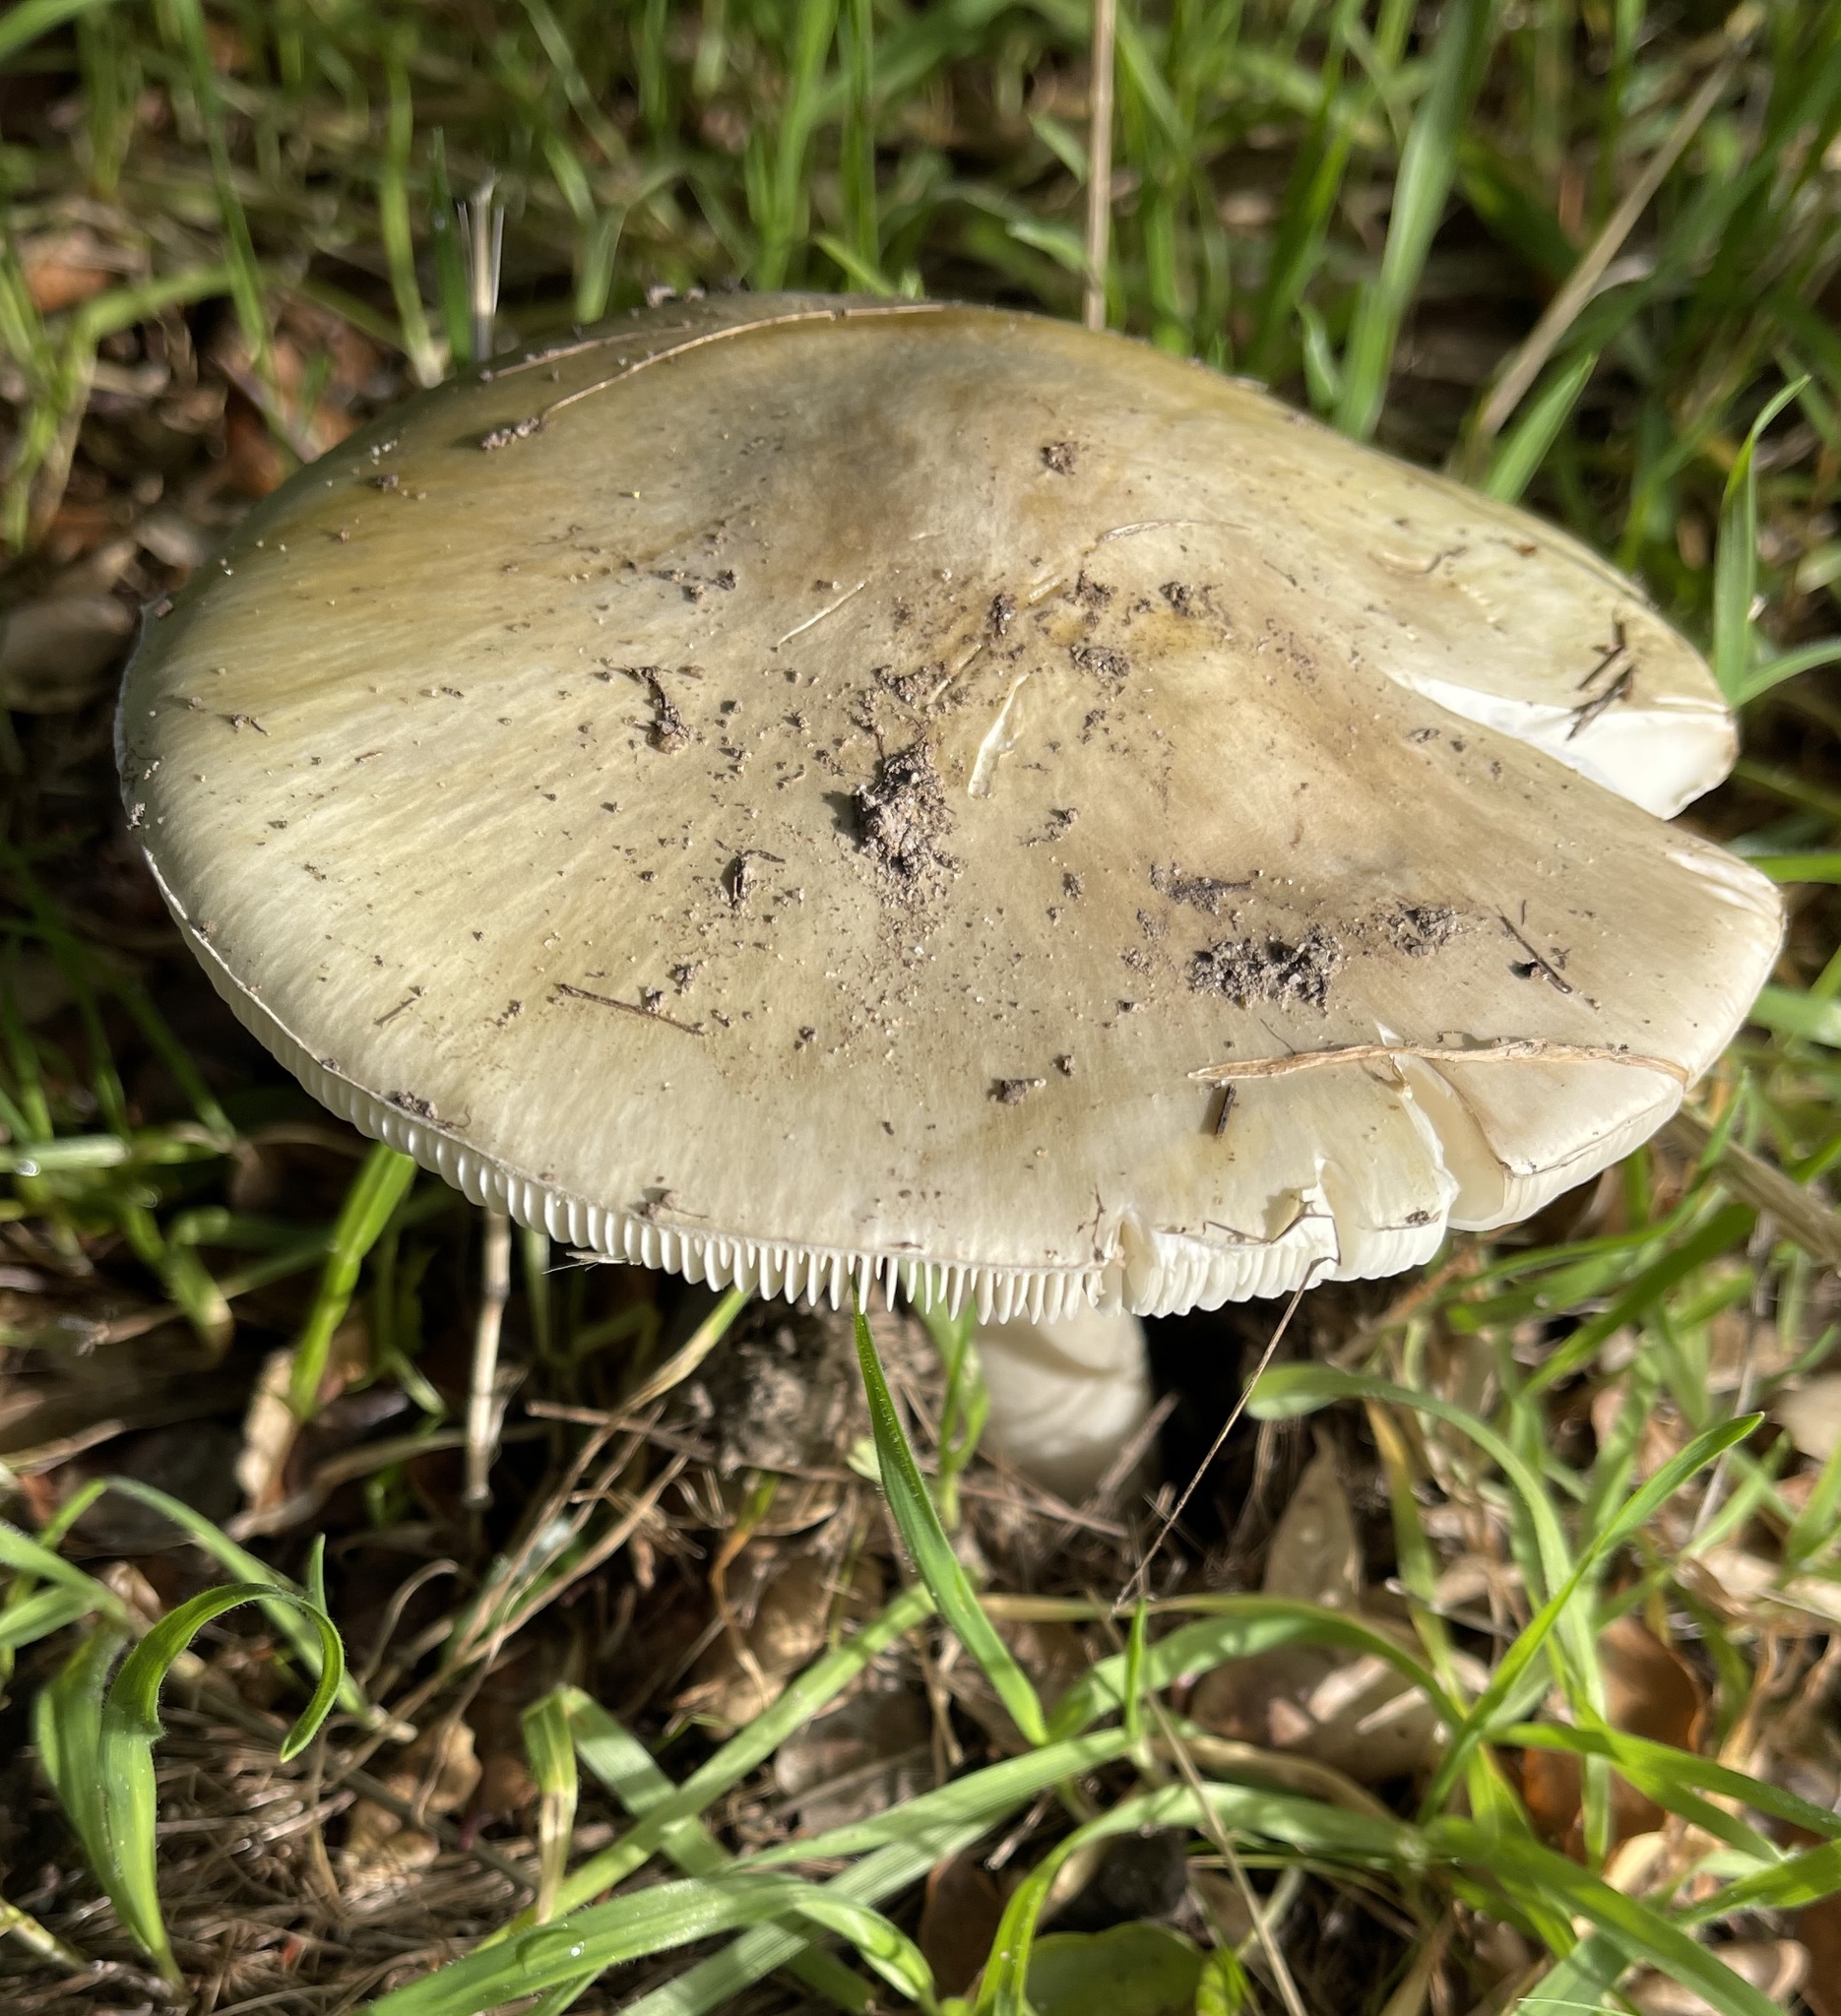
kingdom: Fungi
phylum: Basidiomycota
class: Agaricomycetes
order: Agaricales
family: Amanitaceae
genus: Amanita
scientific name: Amanita phalloides
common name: Death cap
